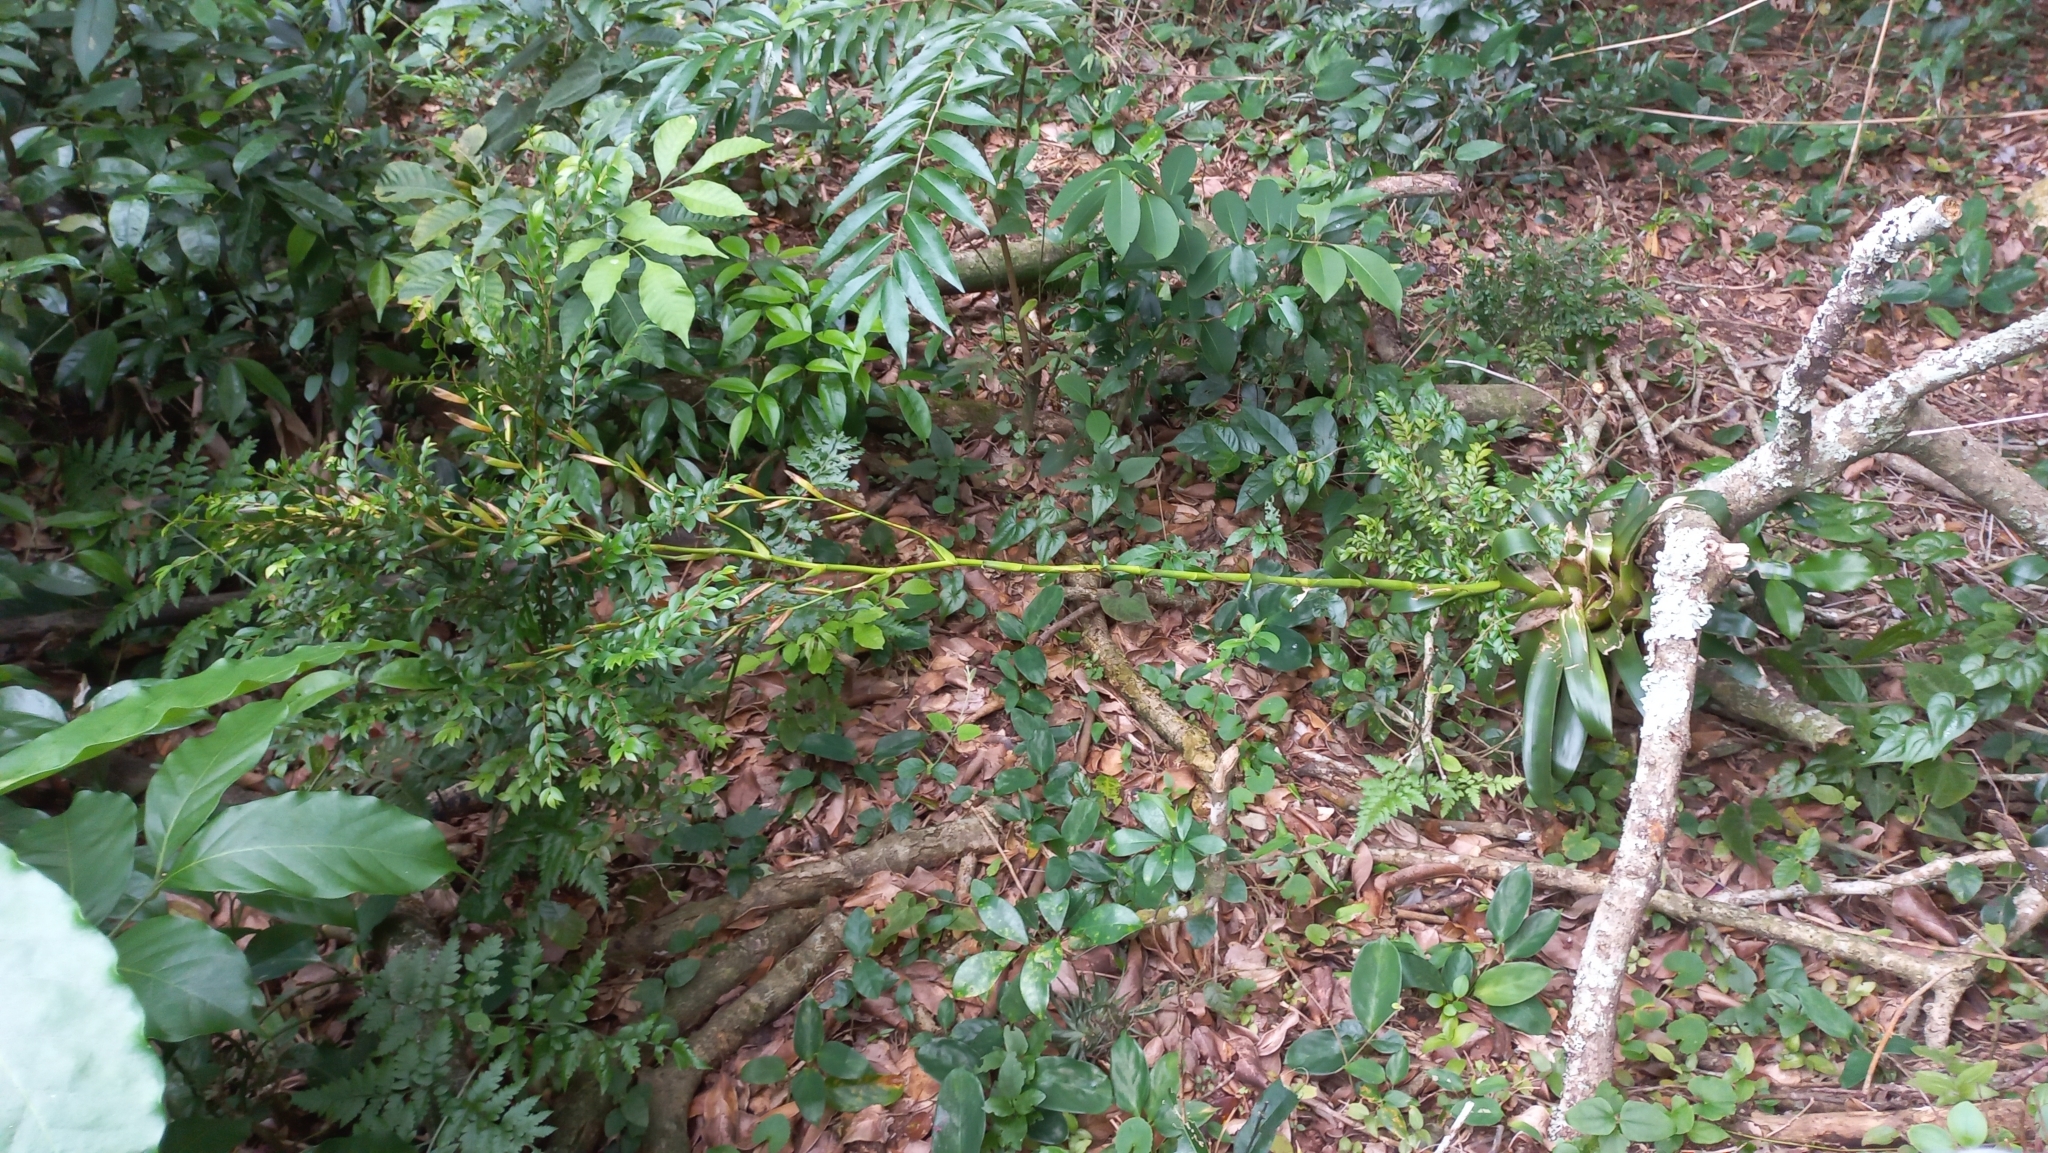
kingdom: Plantae
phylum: Tracheophyta
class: Liliopsida
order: Poales
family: Bromeliaceae
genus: Vriesea
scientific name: Vriesea rubroviridis
